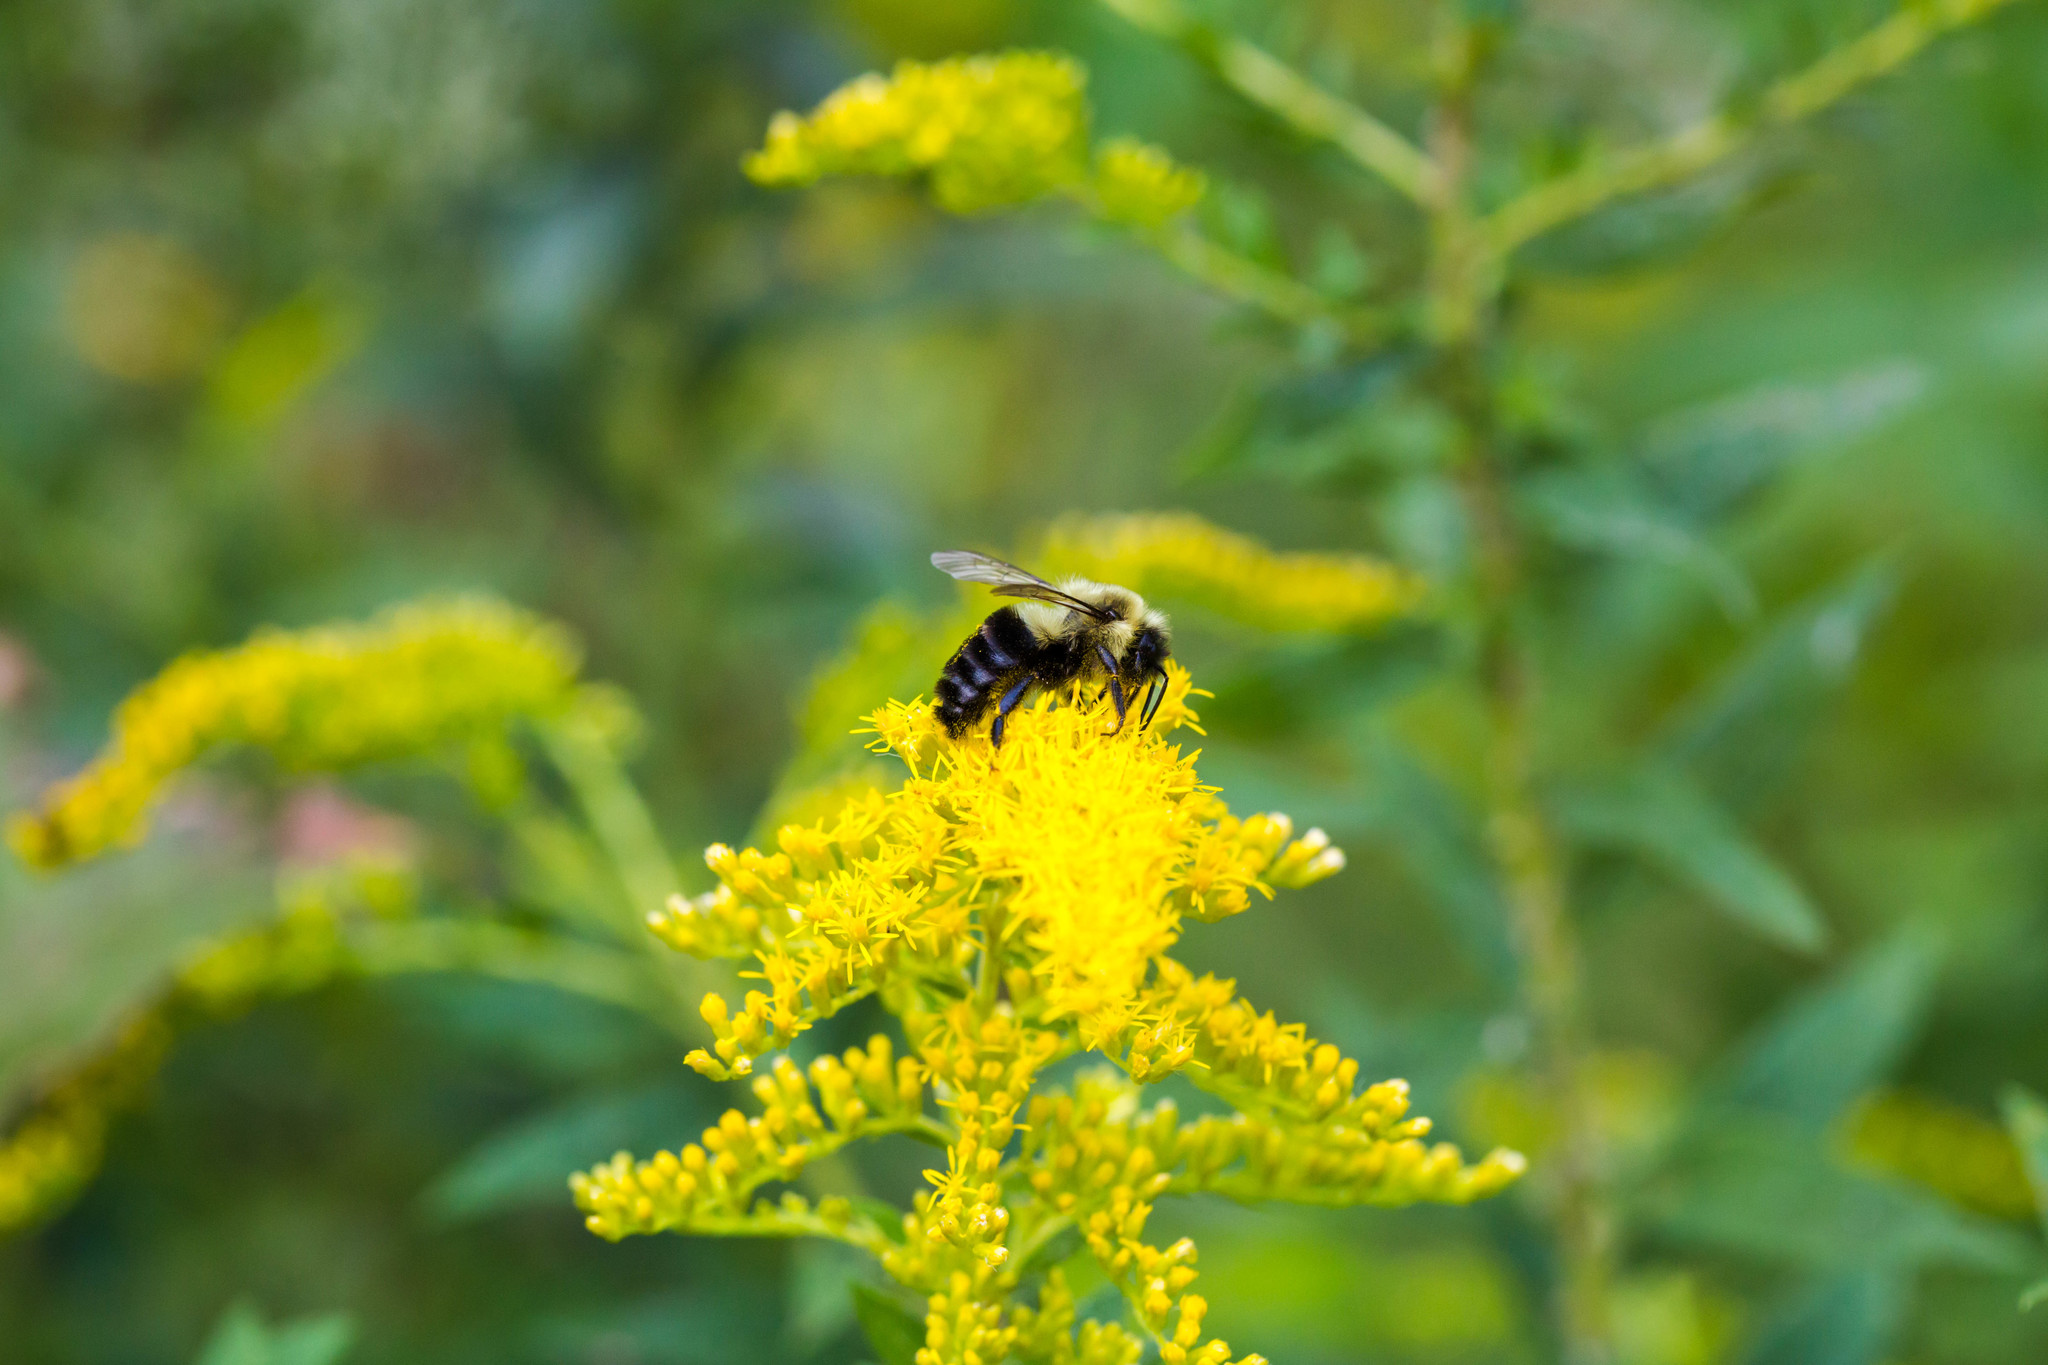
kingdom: Animalia
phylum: Arthropoda
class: Insecta
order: Hymenoptera
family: Apidae
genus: Bombus
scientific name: Bombus impatiens
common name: Common eastern bumble bee
